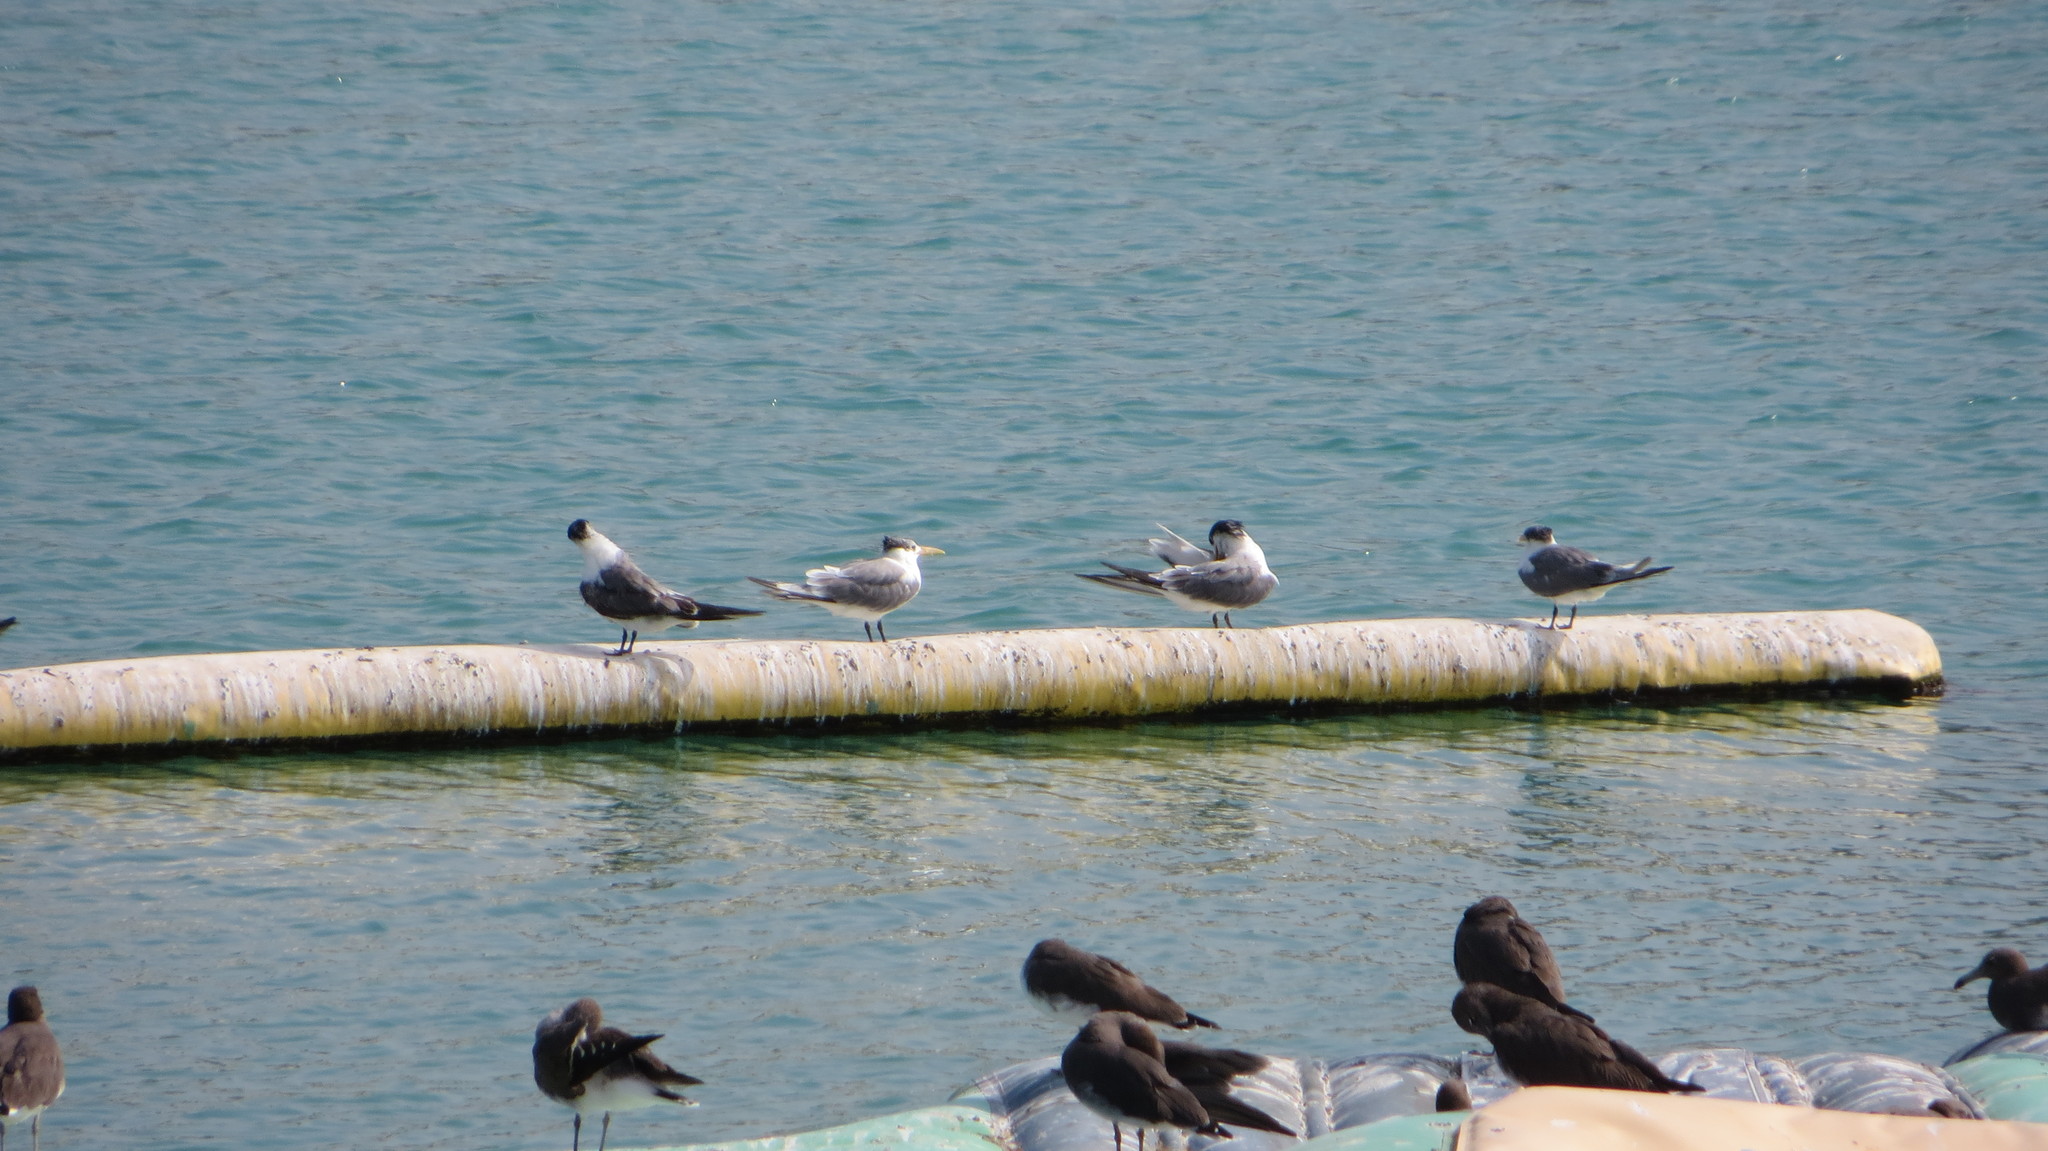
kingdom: Animalia
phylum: Chordata
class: Aves
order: Charadriiformes
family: Laridae
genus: Thalasseus
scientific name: Thalasseus bergii
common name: Greater crested tern
